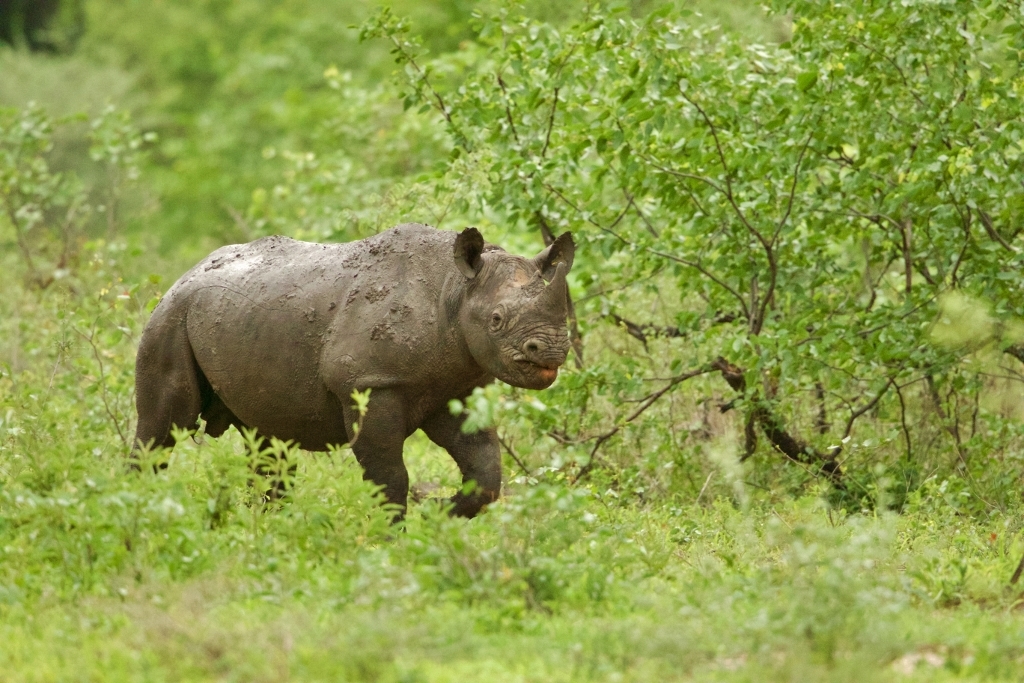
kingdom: Animalia
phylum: Chordata
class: Mammalia
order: Perissodactyla
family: Rhinocerotidae
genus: Diceros
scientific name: Diceros bicornis
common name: Black rhinoceros
